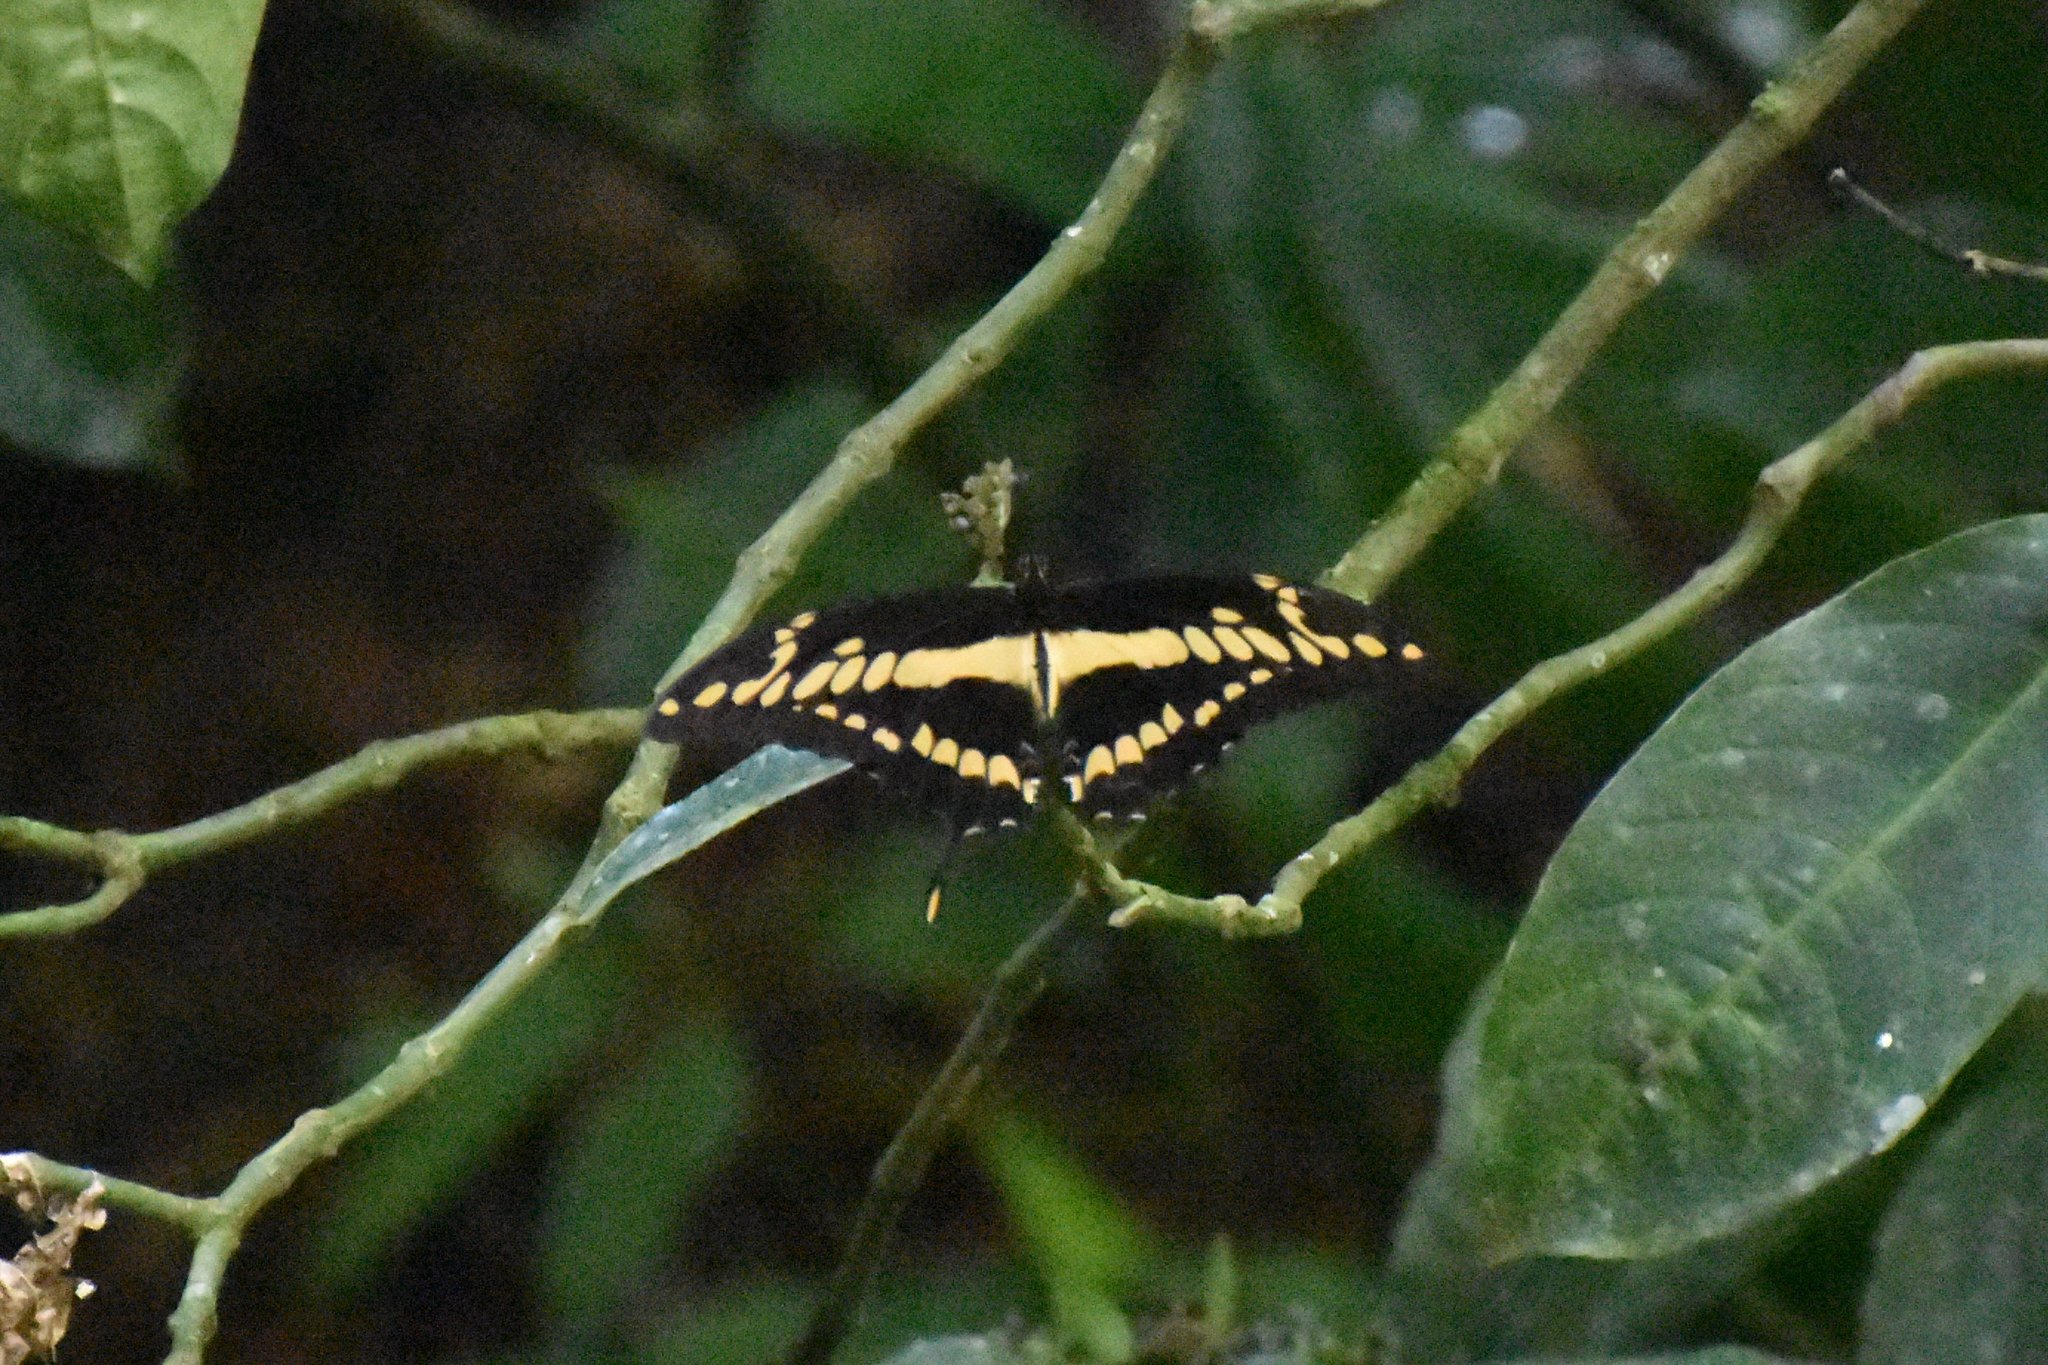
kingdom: Animalia
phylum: Arthropoda
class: Insecta
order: Lepidoptera
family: Papilionidae
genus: Papilio
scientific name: Papilio thoas
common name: King swallowtail
